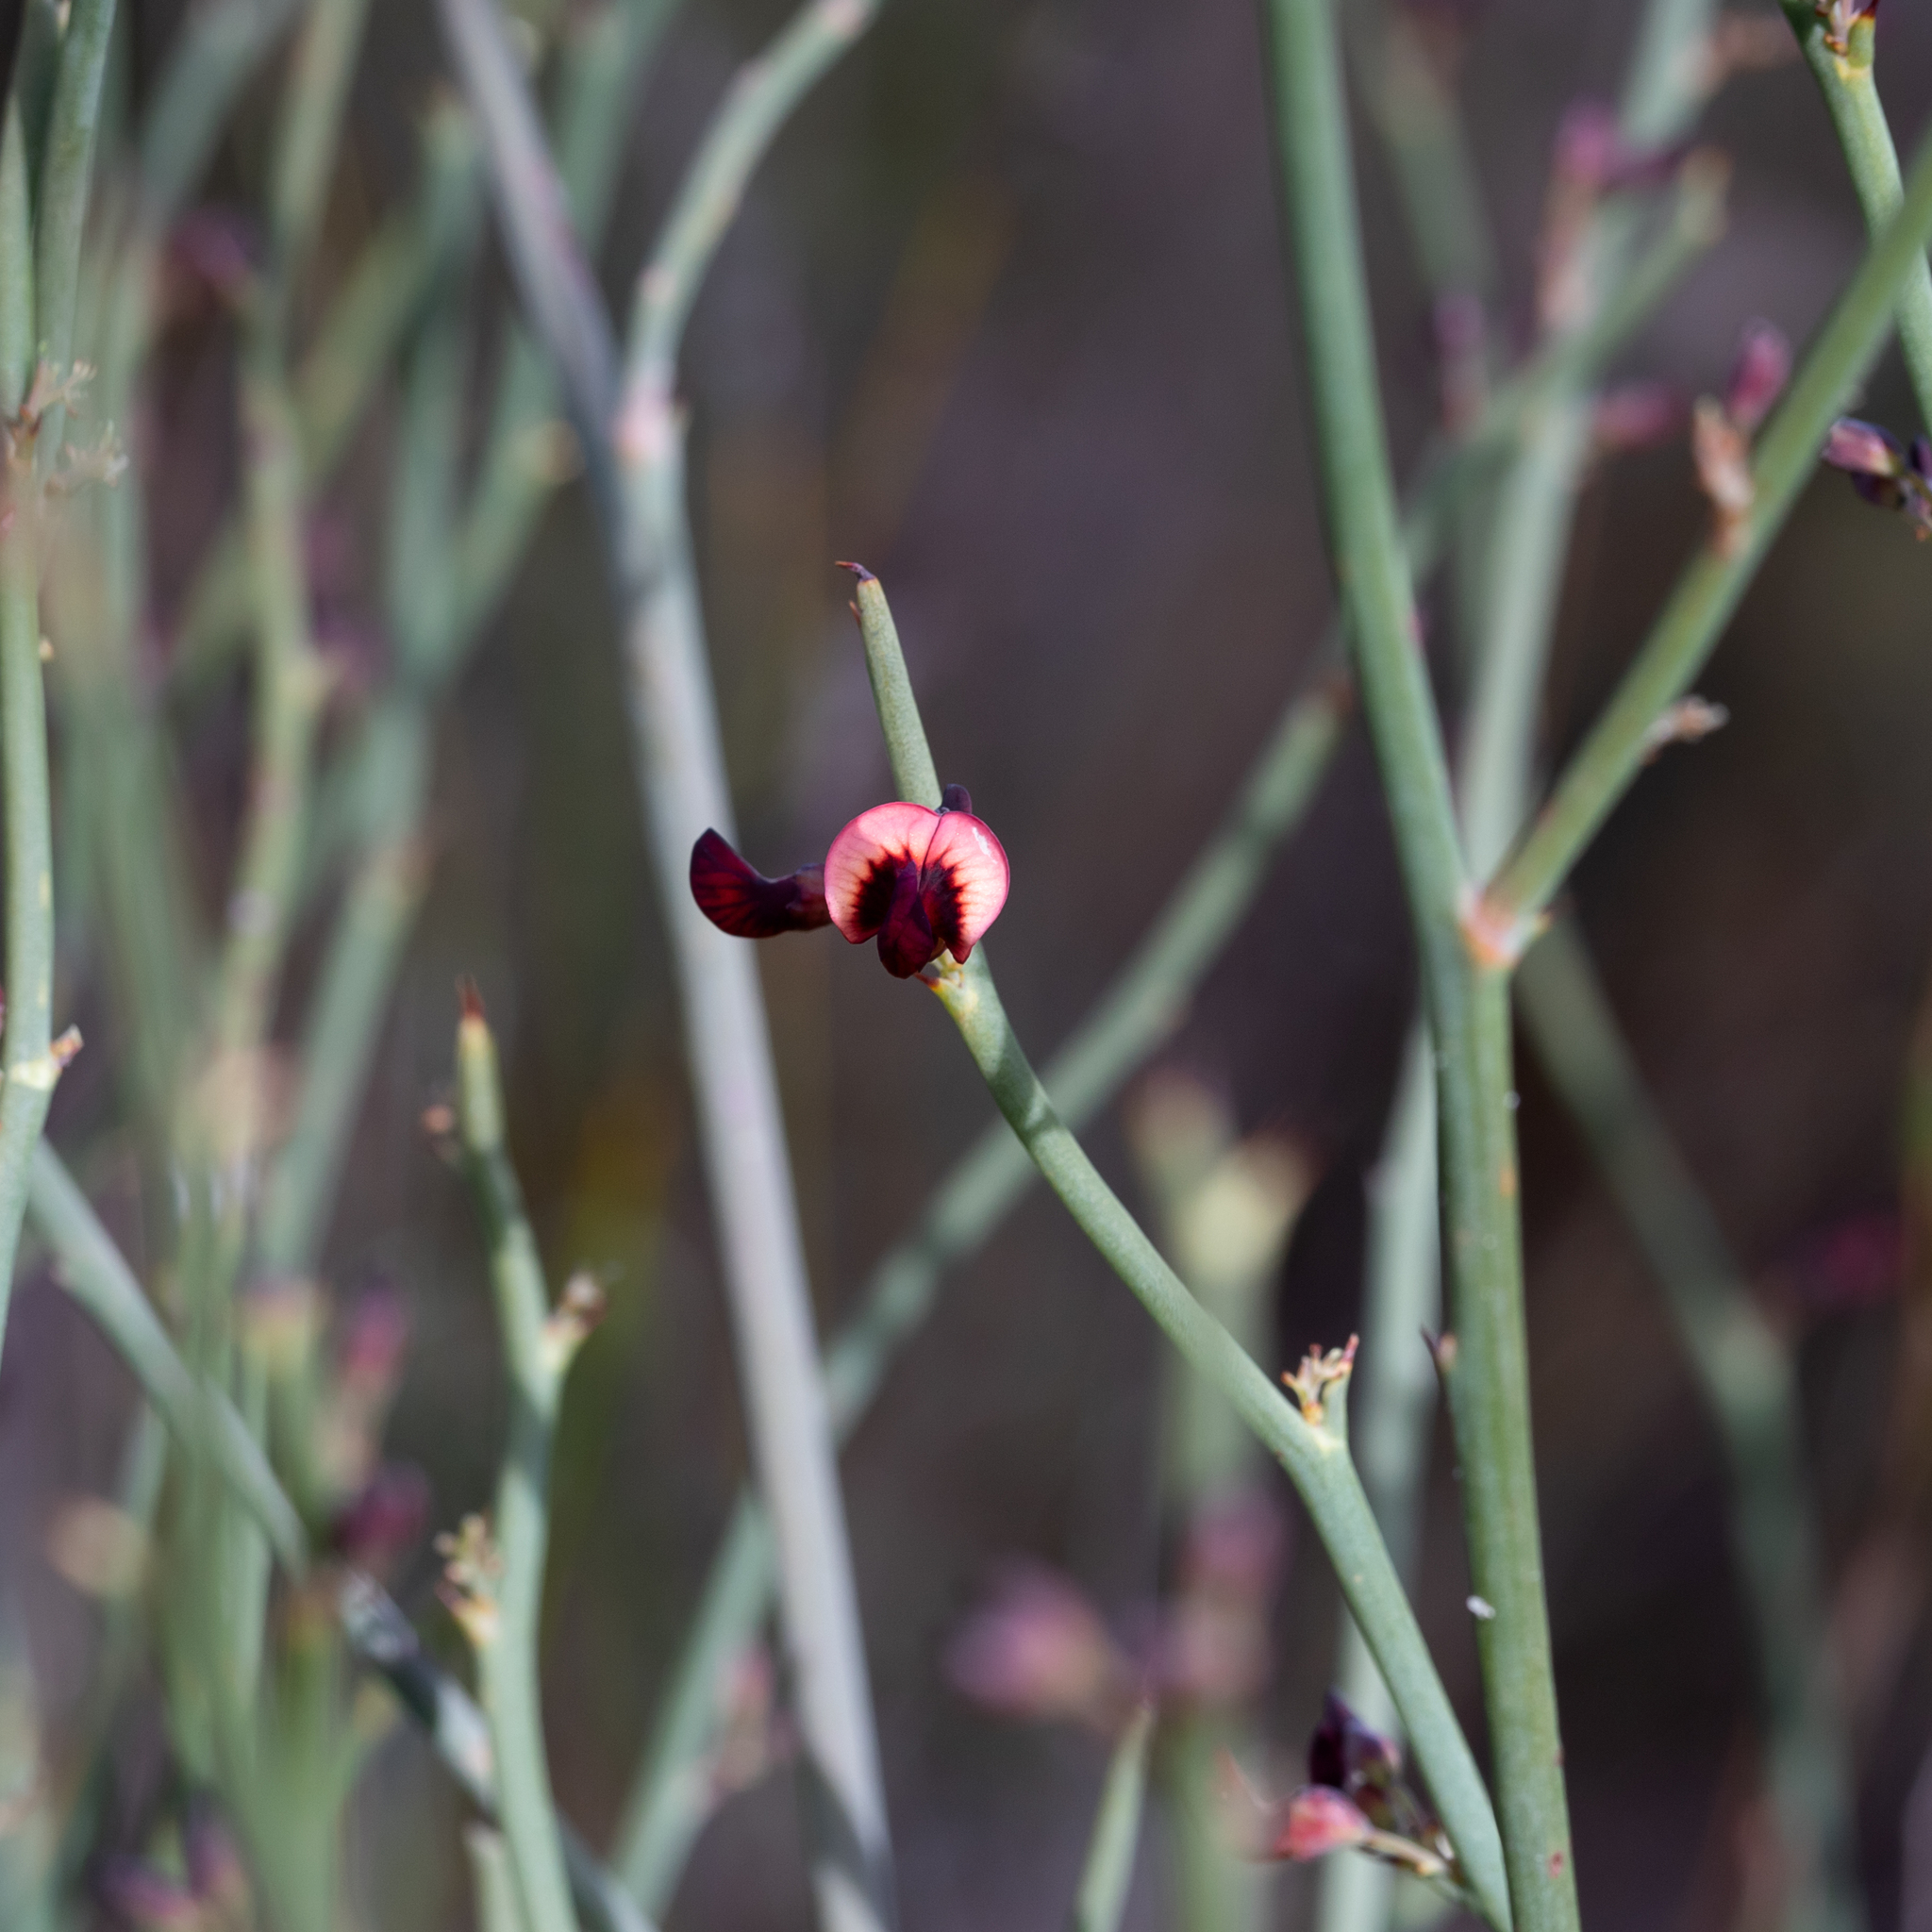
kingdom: Plantae
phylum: Tracheophyta
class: Magnoliopsida
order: Fabales
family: Fabaceae
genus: Daviesia
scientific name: Daviesia brevifolia
